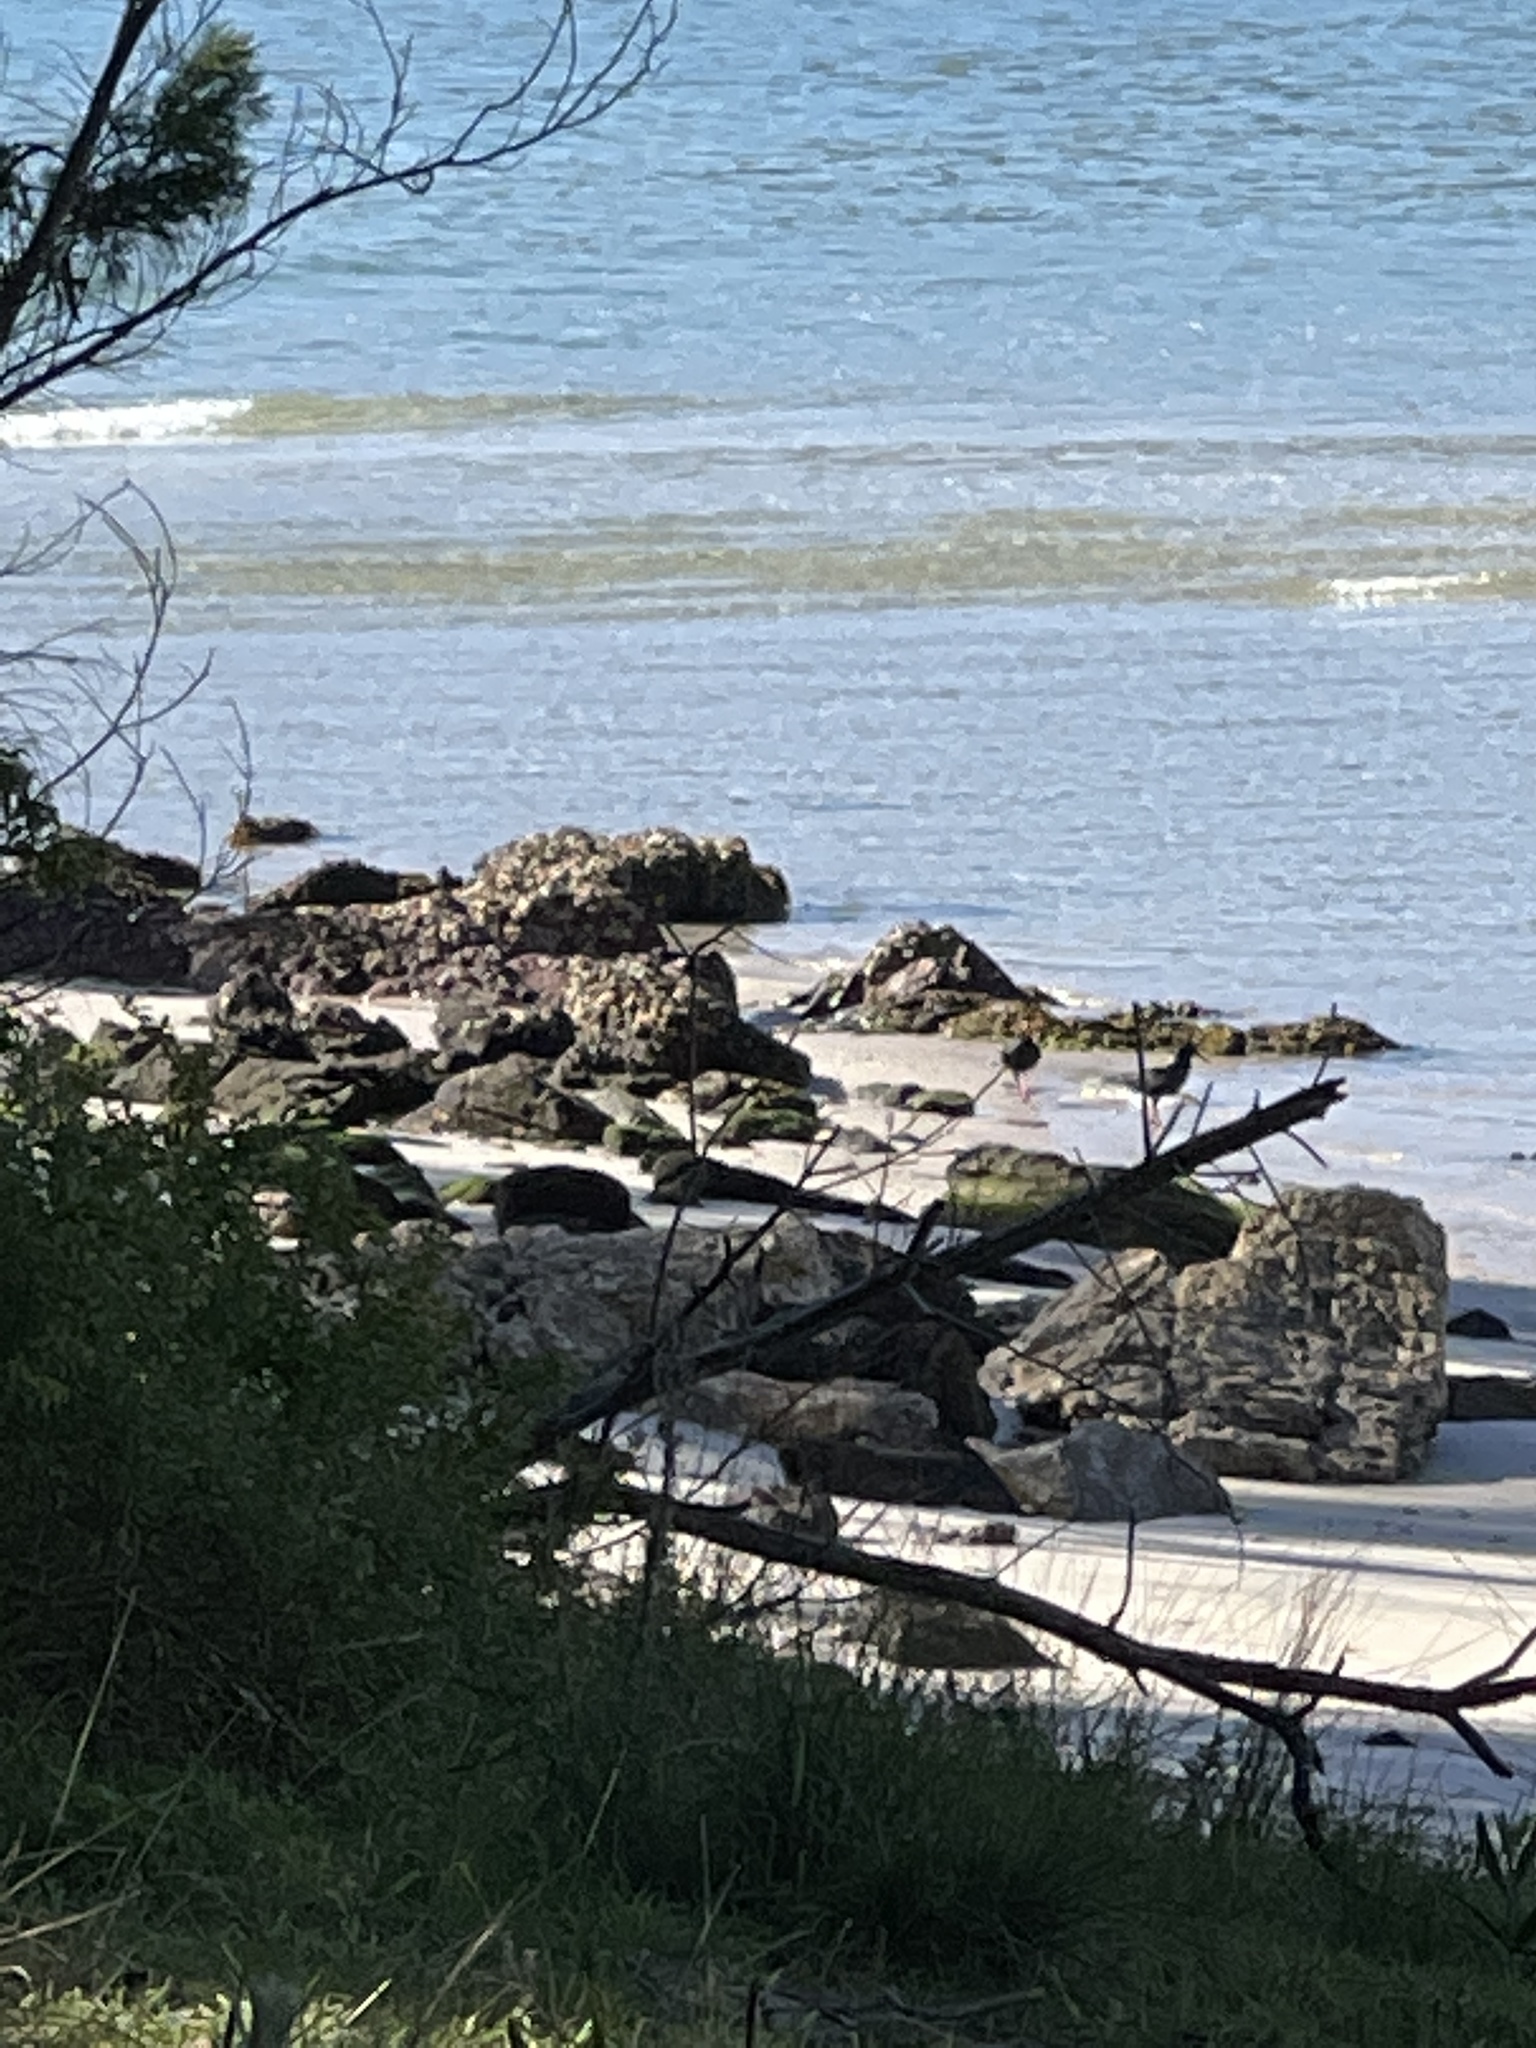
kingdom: Animalia
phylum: Chordata
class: Aves
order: Charadriiformes
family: Haematopodidae
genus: Haematopus
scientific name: Haematopus fuliginosus
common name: Sooty oystercatcher
